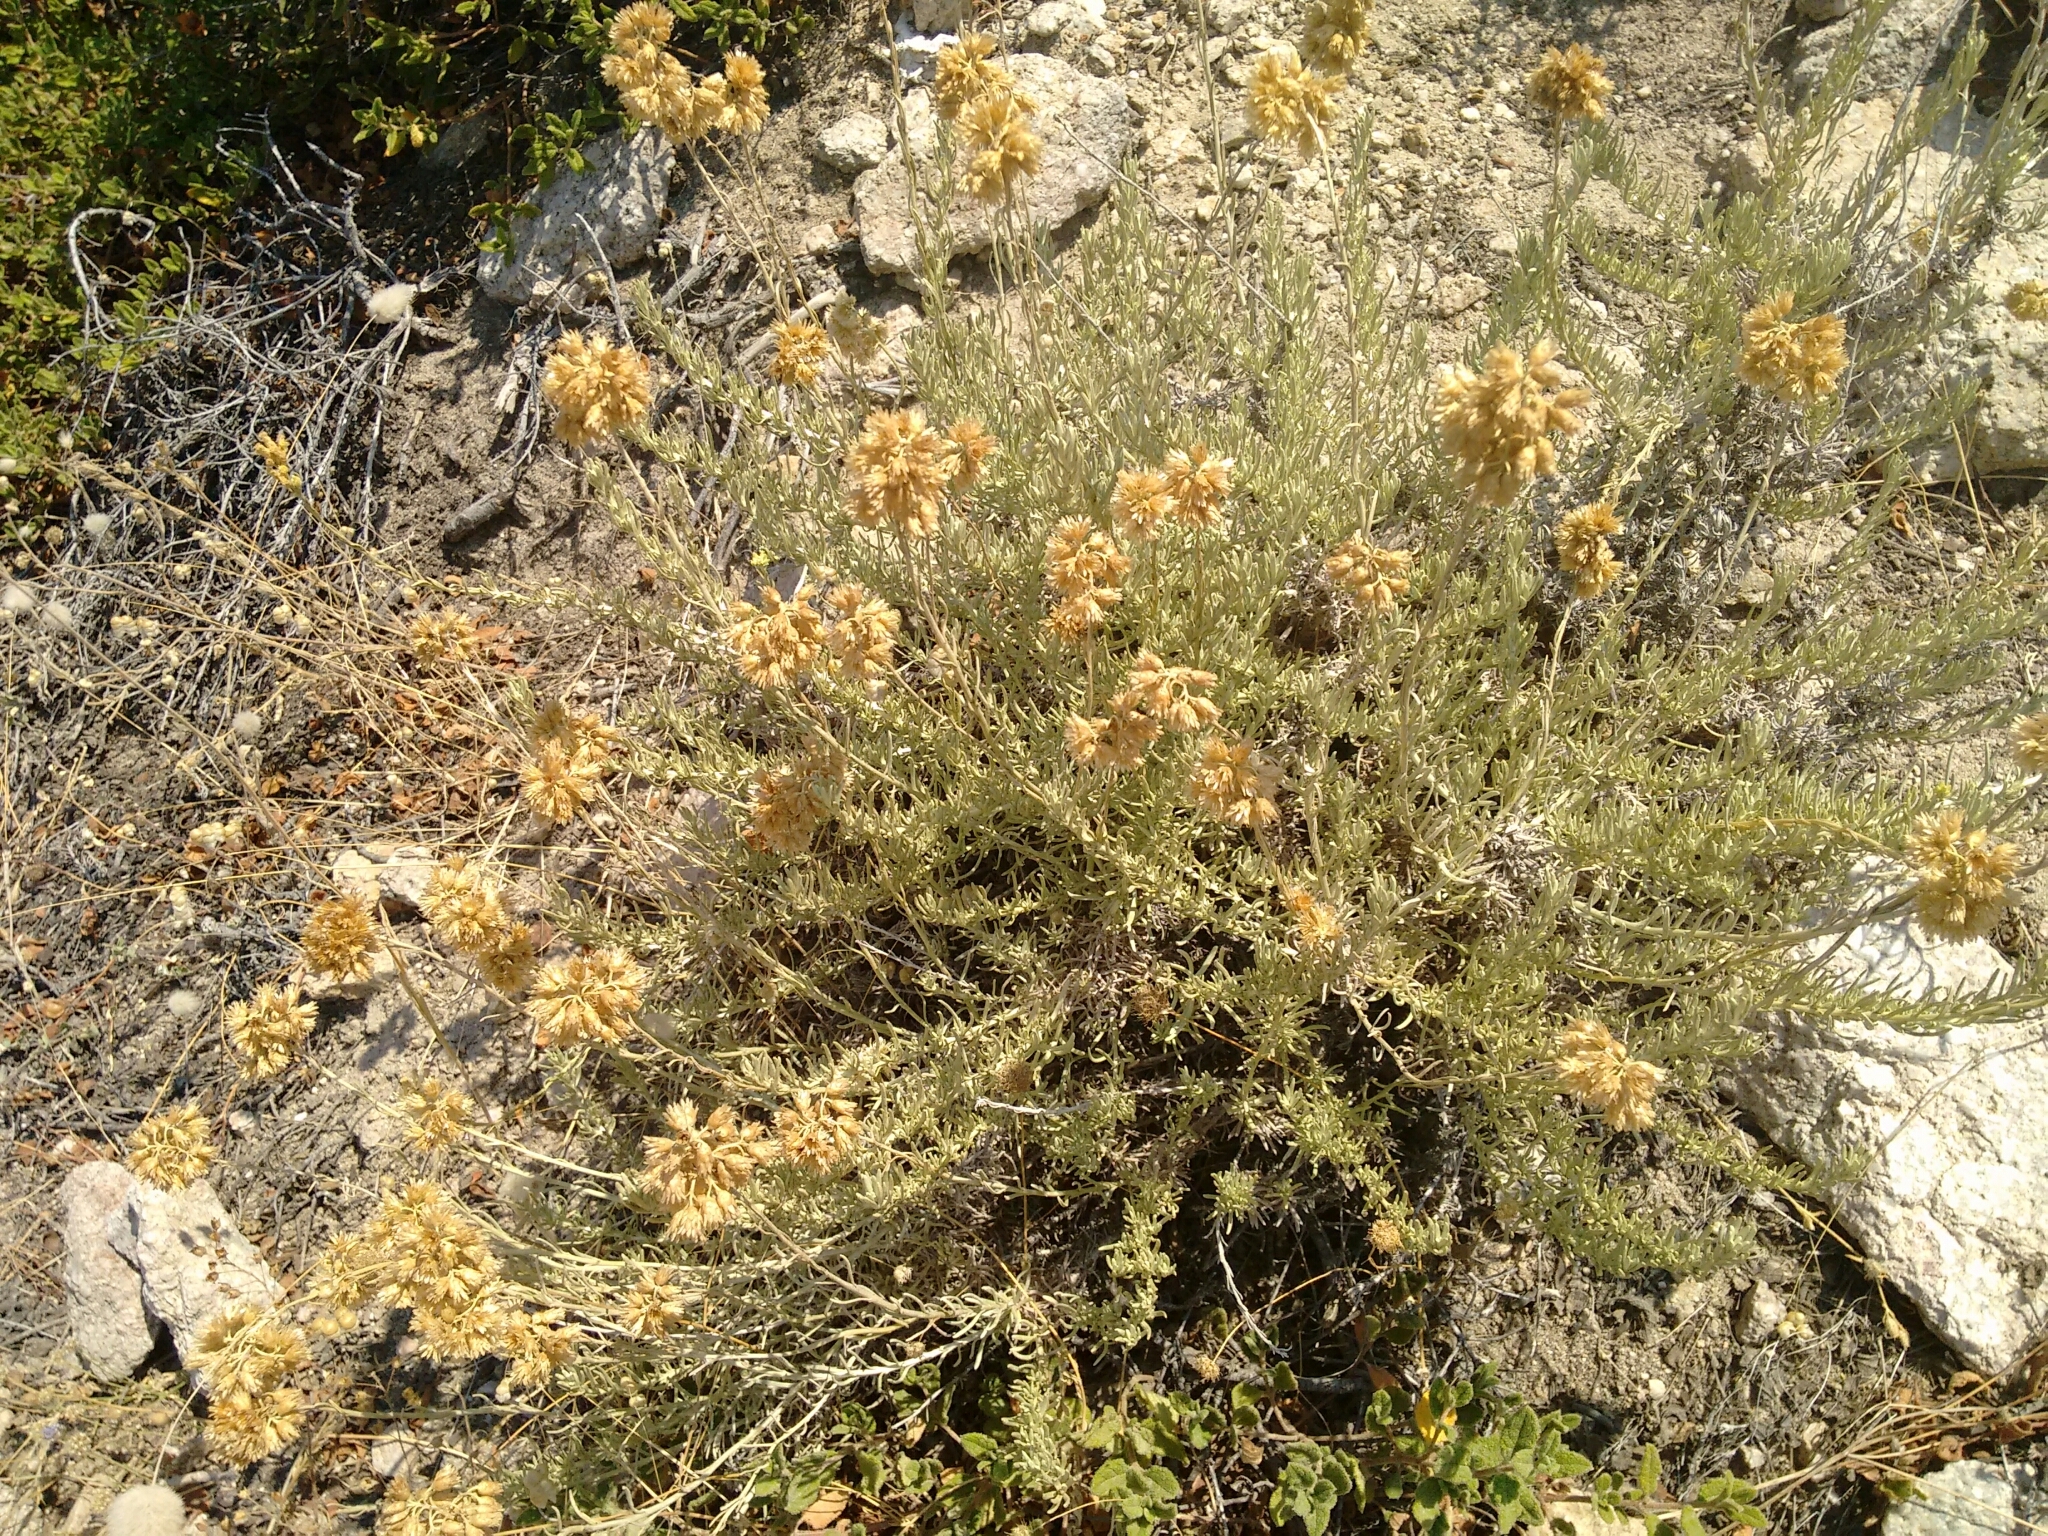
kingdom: Plantae
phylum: Tracheophyta
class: Magnoliopsida
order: Asterales
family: Asteraceae
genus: Helichrysum
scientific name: Helichrysum italicum
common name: Curryplant
